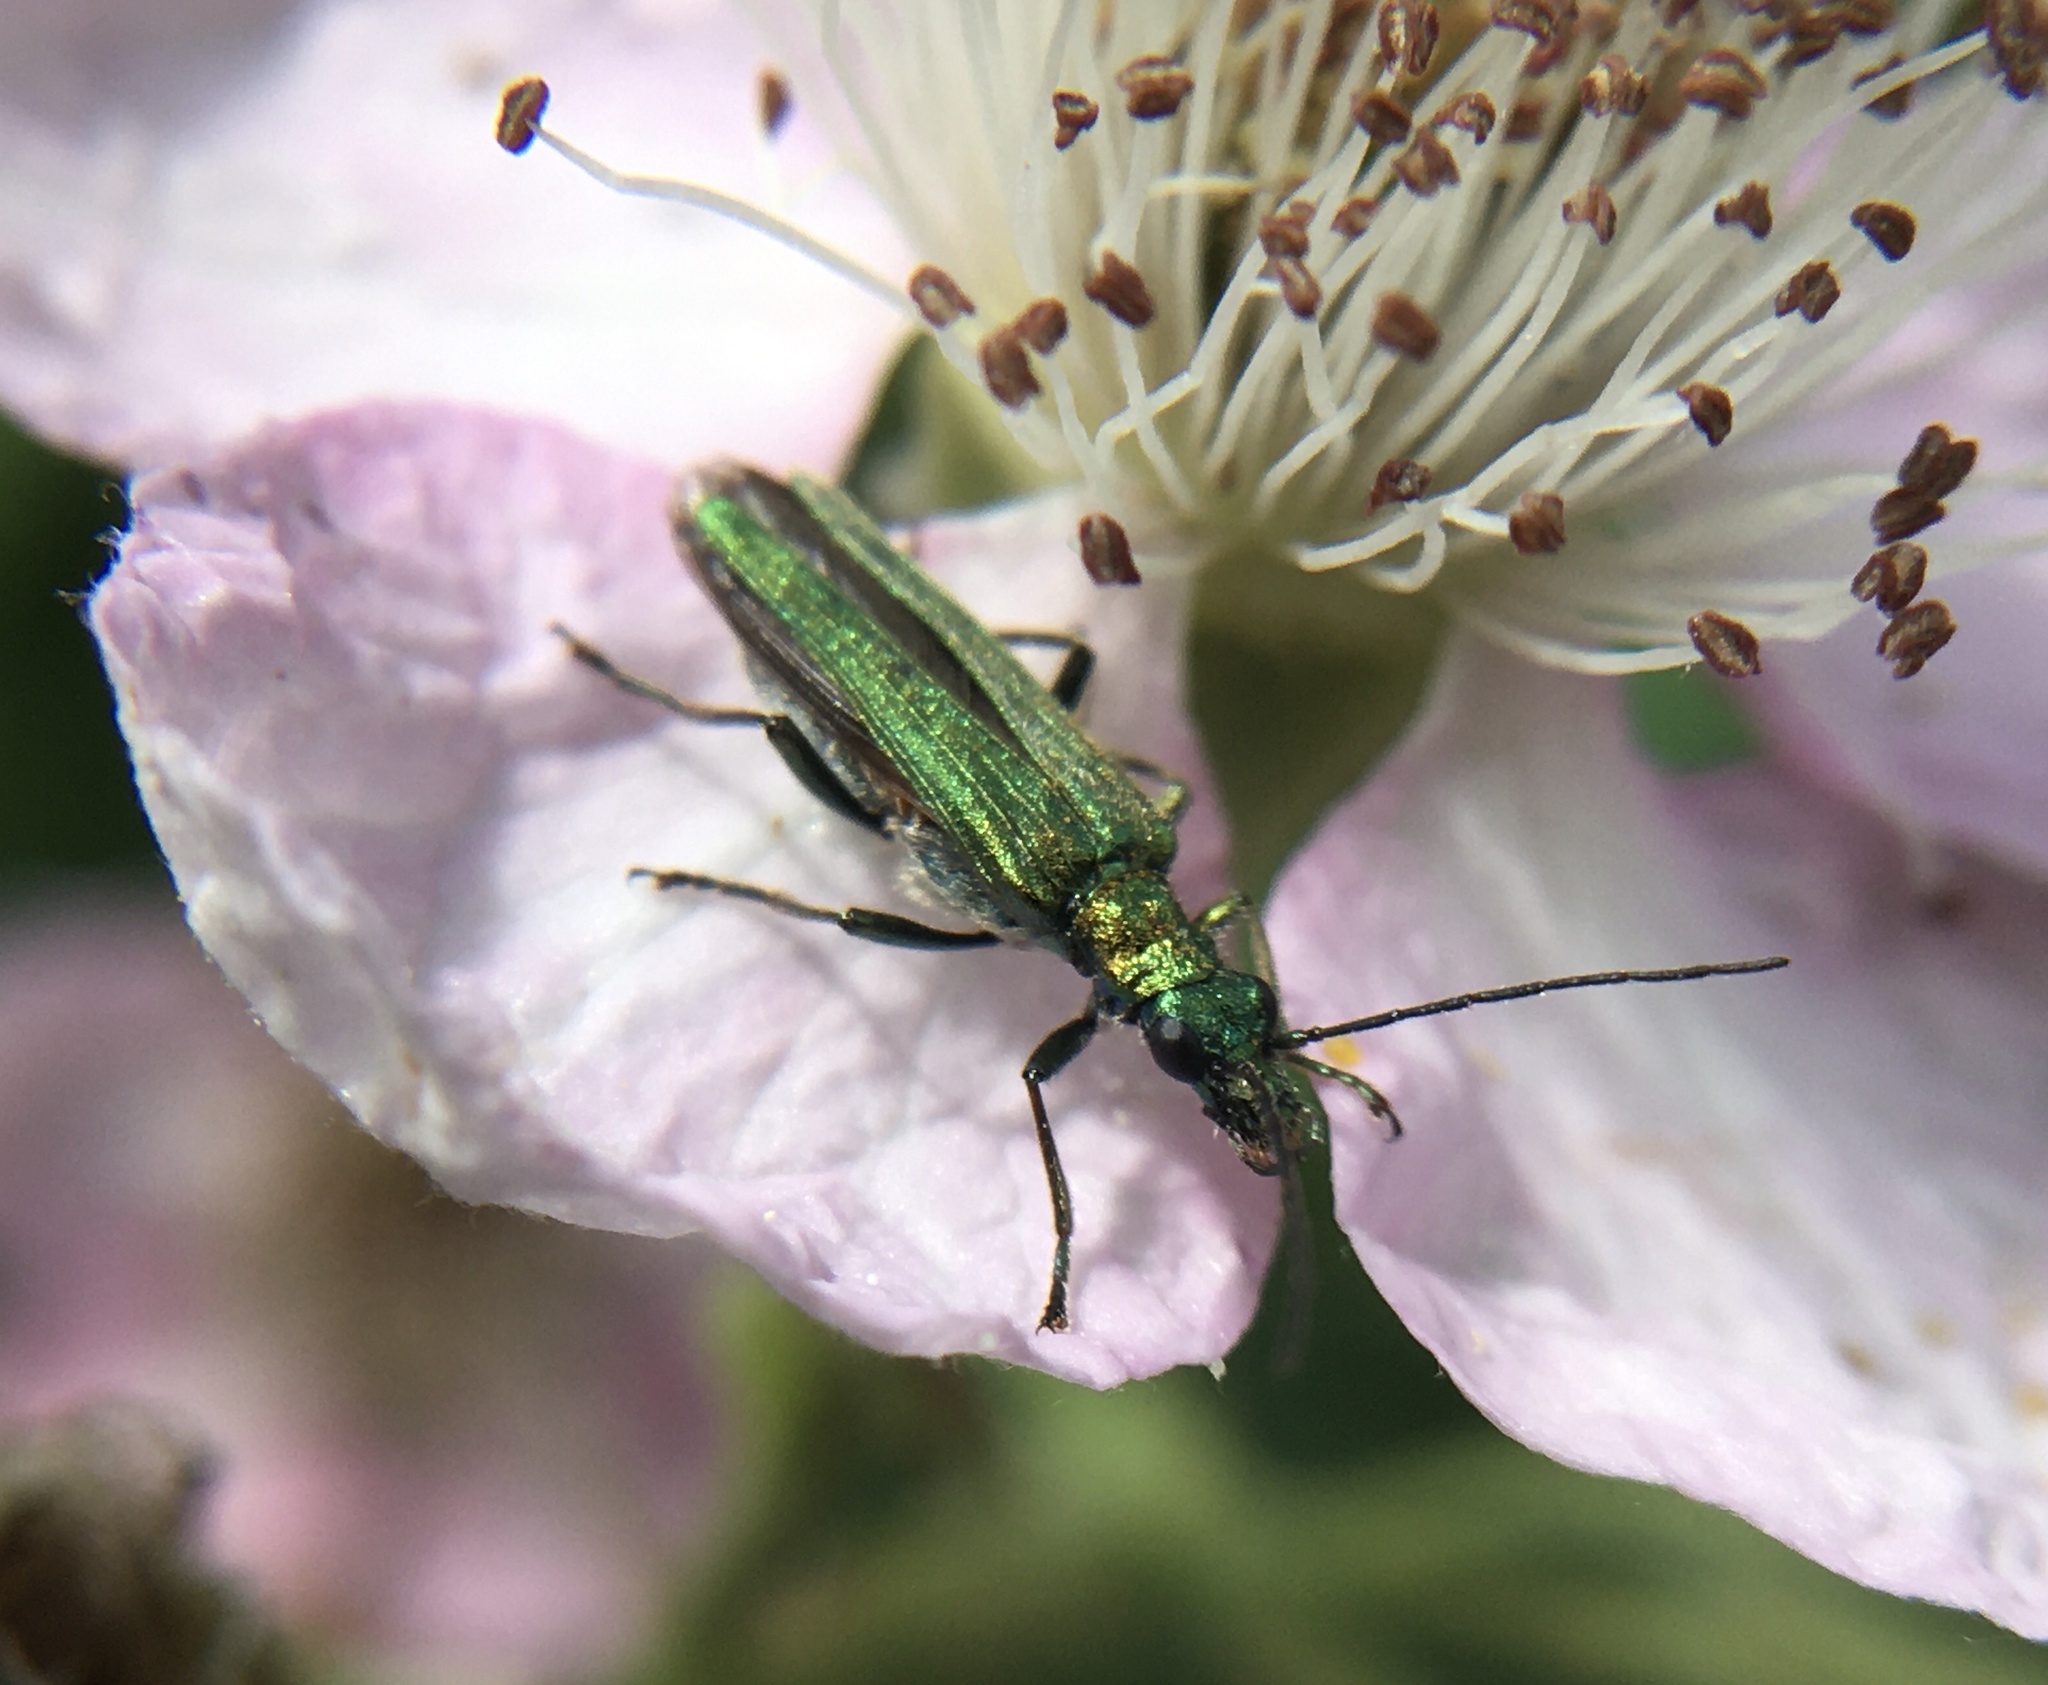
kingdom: Animalia
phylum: Arthropoda
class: Insecta
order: Coleoptera
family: Oedemeridae
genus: Oedemera
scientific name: Oedemera nobilis
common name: Swollen-thighed beetle
